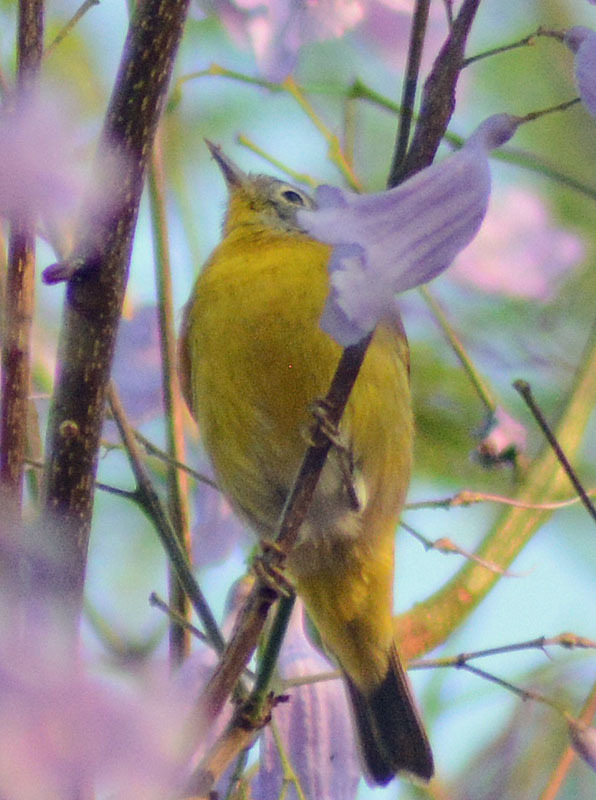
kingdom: Animalia
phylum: Chordata
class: Aves
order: Passeriformes
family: Parulidae
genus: Leiothlypis
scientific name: Leiothlypis ruficapilla
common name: Nashville warbler
